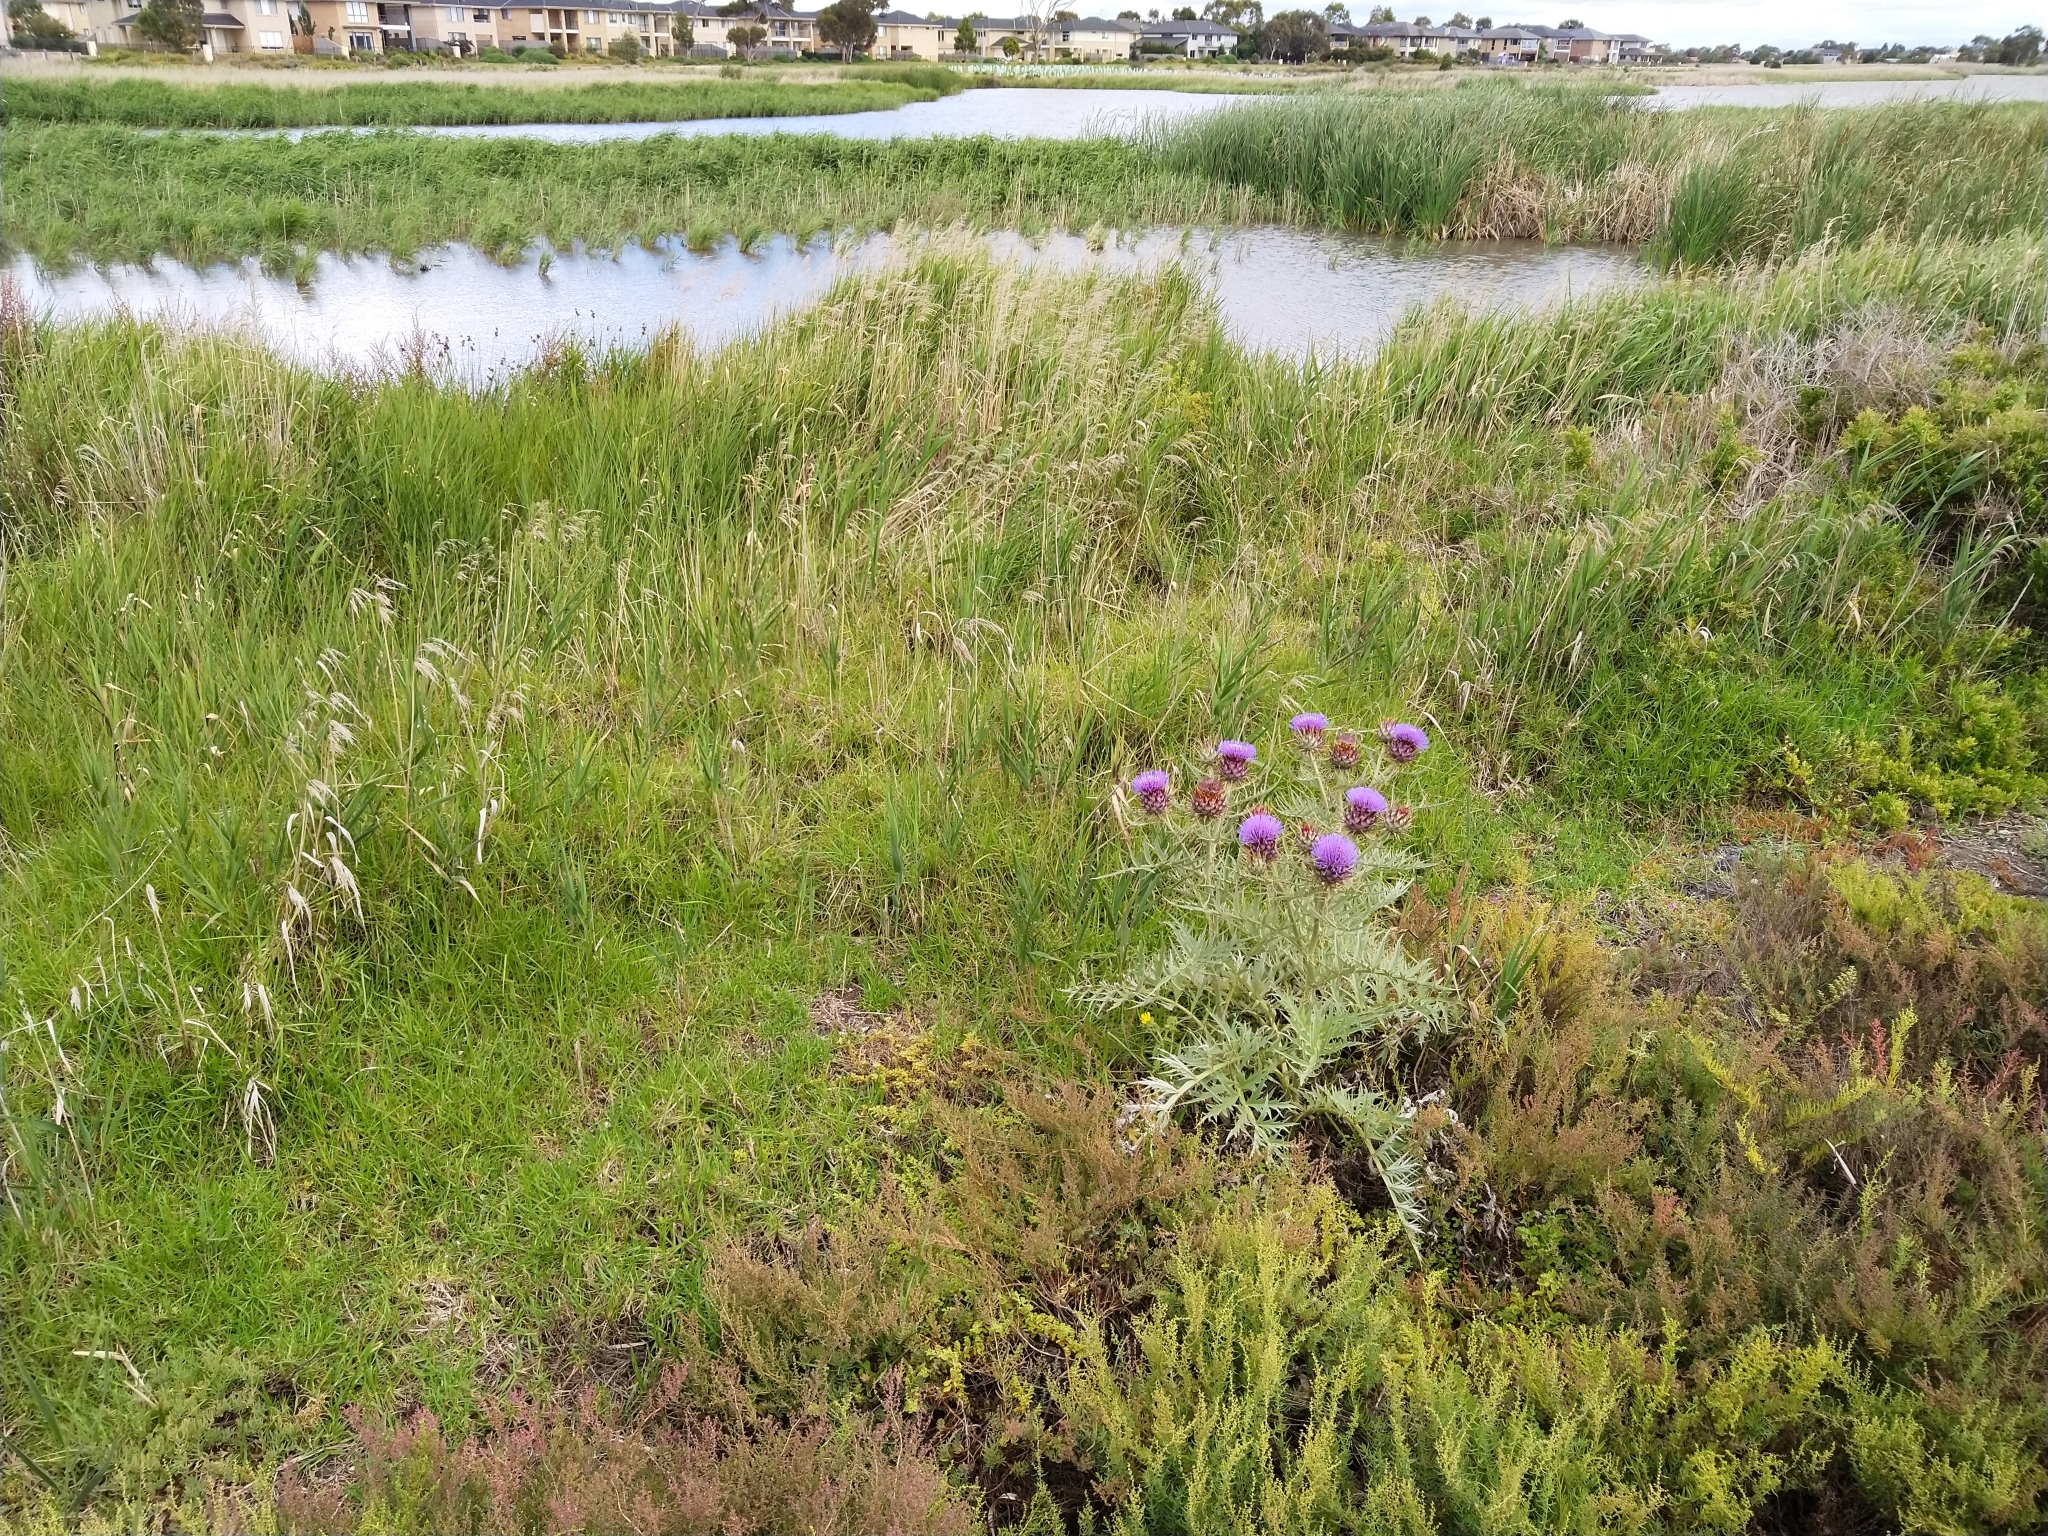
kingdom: Plantae
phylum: Tracheophyta
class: Magnoliopsida
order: Asterales
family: Asteraceae
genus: Cynara
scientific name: Cynara cardunculus
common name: Globe artichoke
